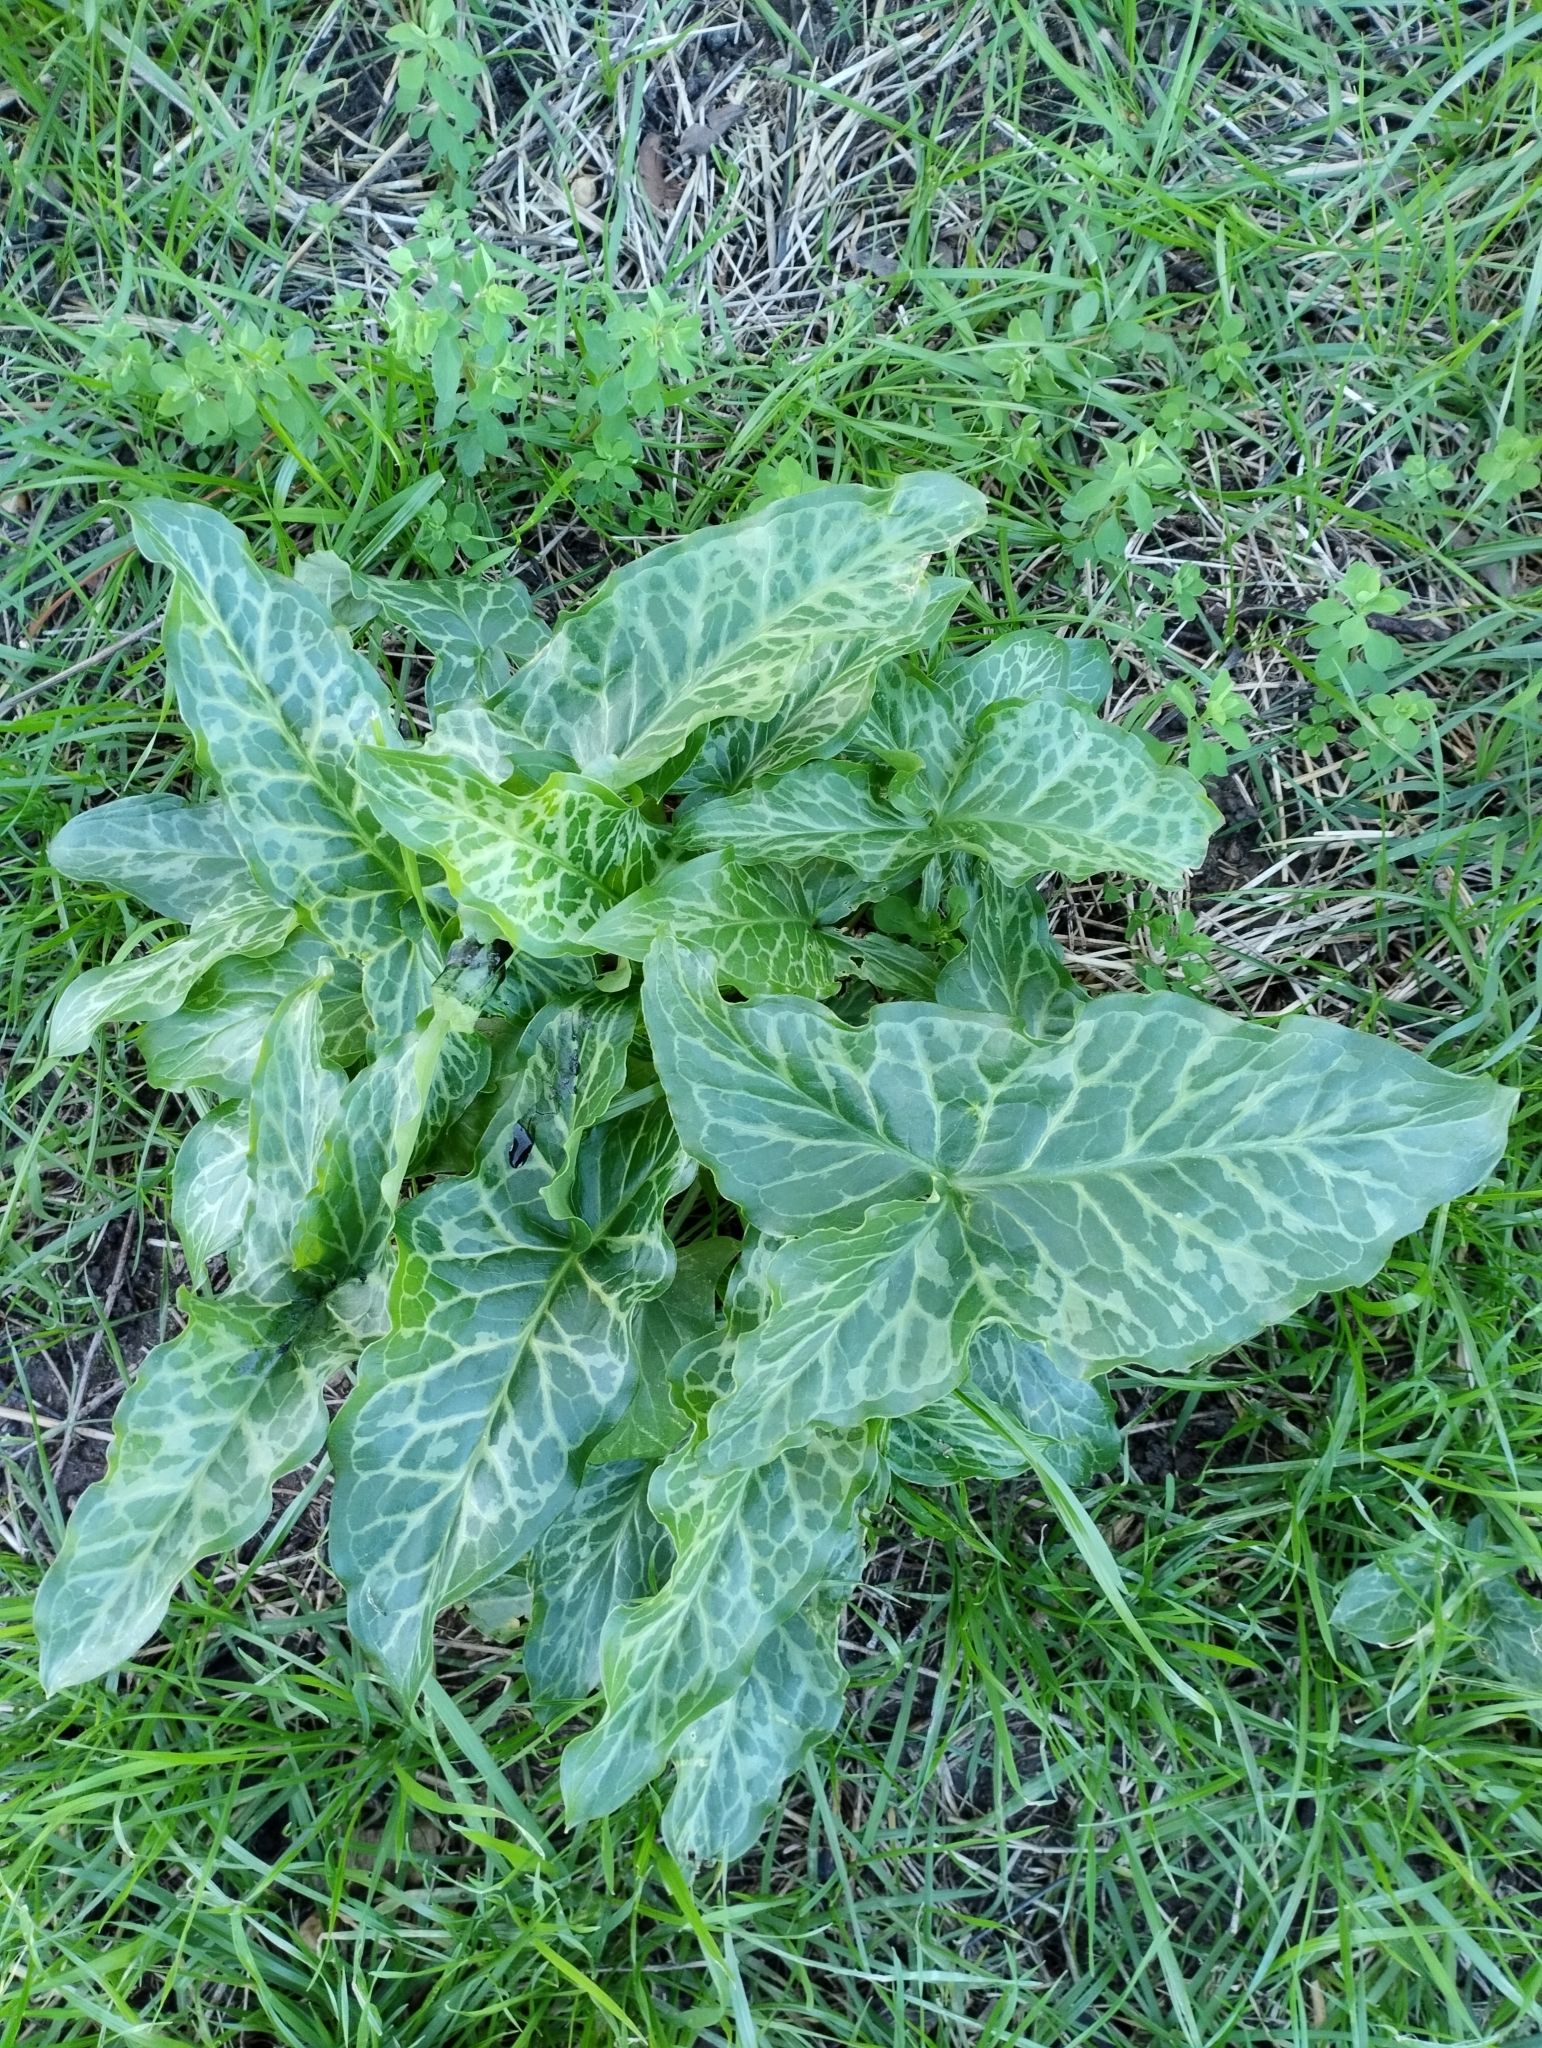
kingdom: Plantae
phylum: Tracheophyta
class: Liliopsida
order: Alismatales
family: Araceae
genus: Arum
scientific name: Arum italicum
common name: Italian lords-and-ladies
